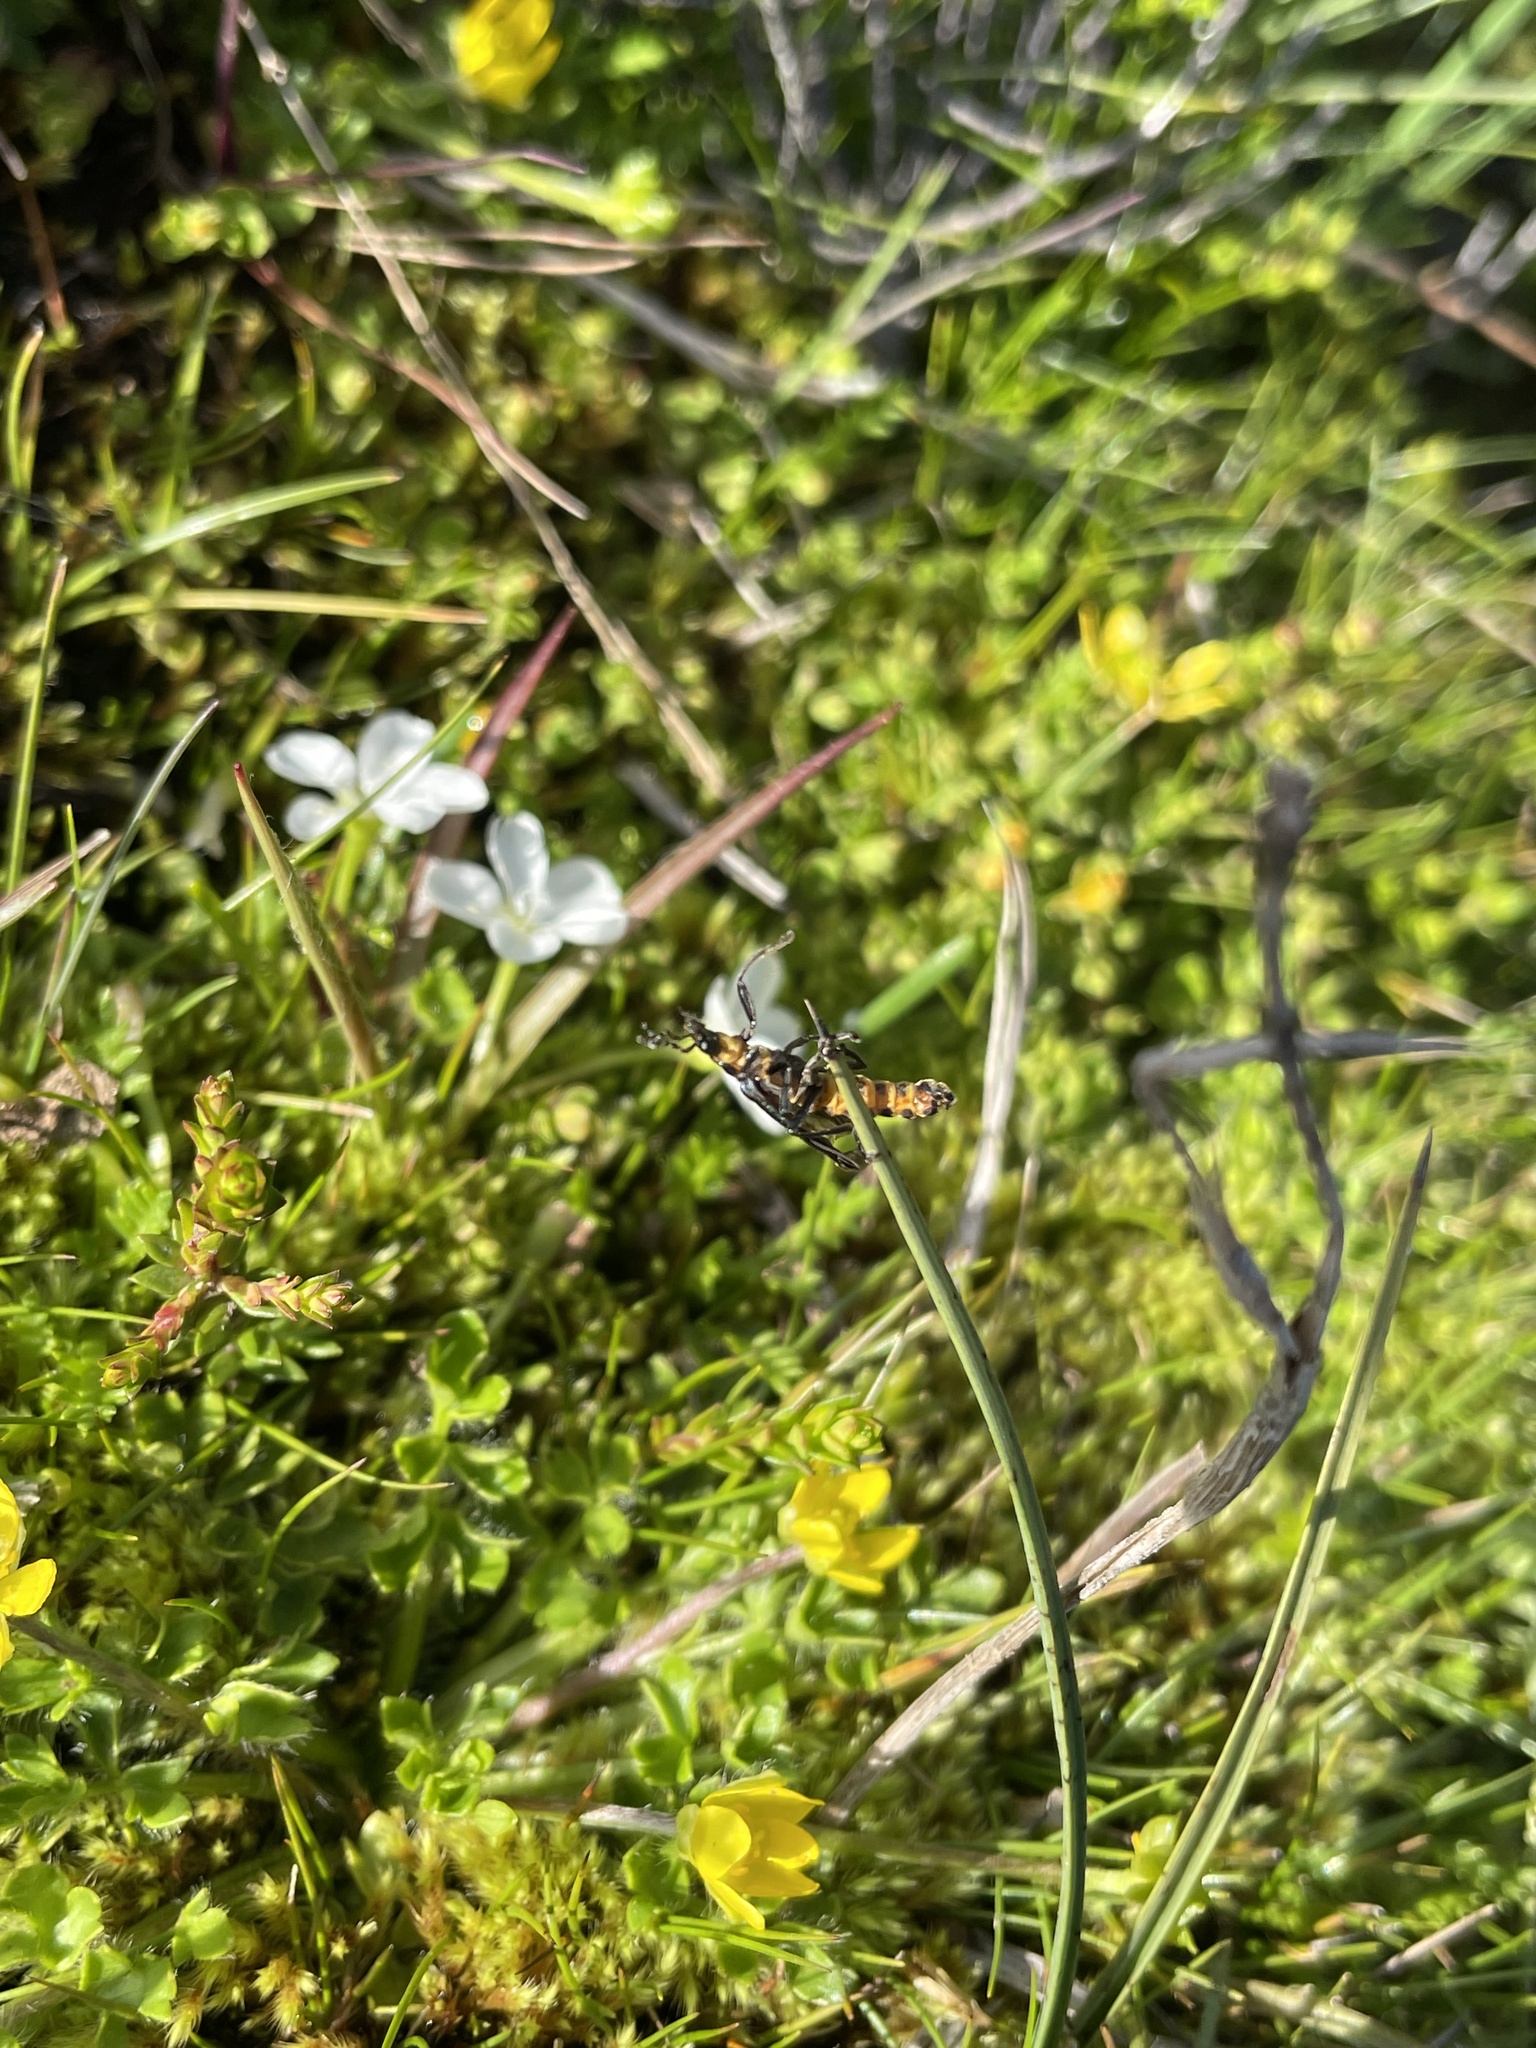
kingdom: Plantae
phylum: Tracheophyta
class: Magnoliopsida
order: Caryophyllales
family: Montiaceae
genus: Montia
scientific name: Montia australasica
